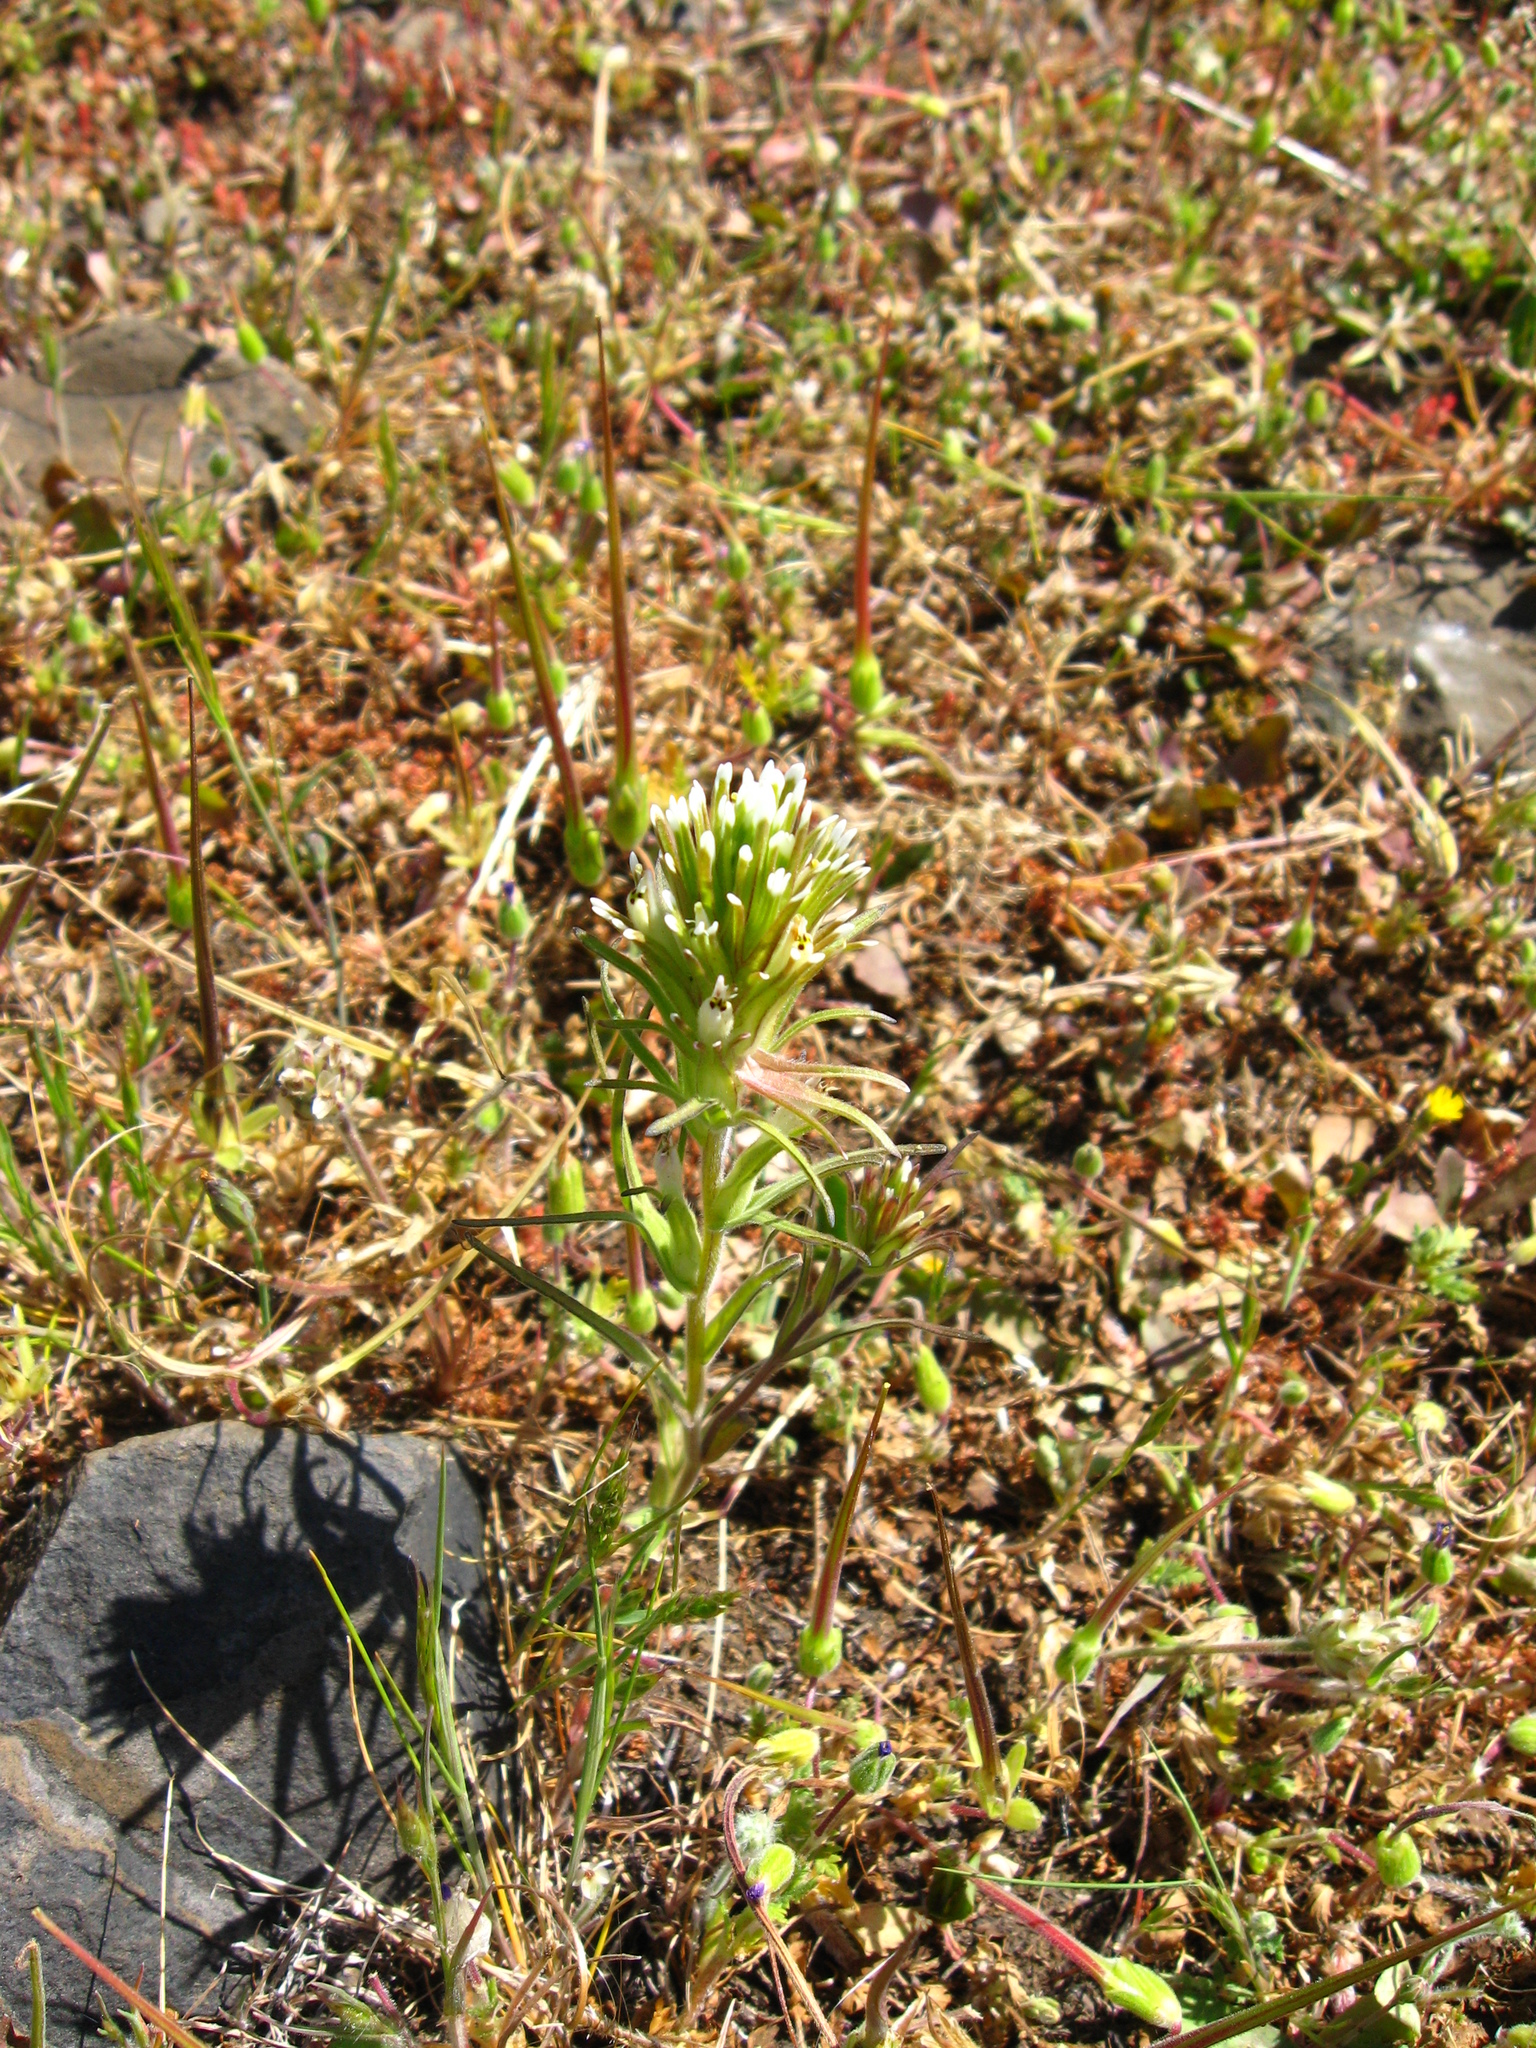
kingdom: Plantae
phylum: Tracheophyta
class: Magnoliopsida
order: Lamiales
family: Orobanchaceae
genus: Castilleja
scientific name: Castilleja attenuata
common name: Valley tassels
